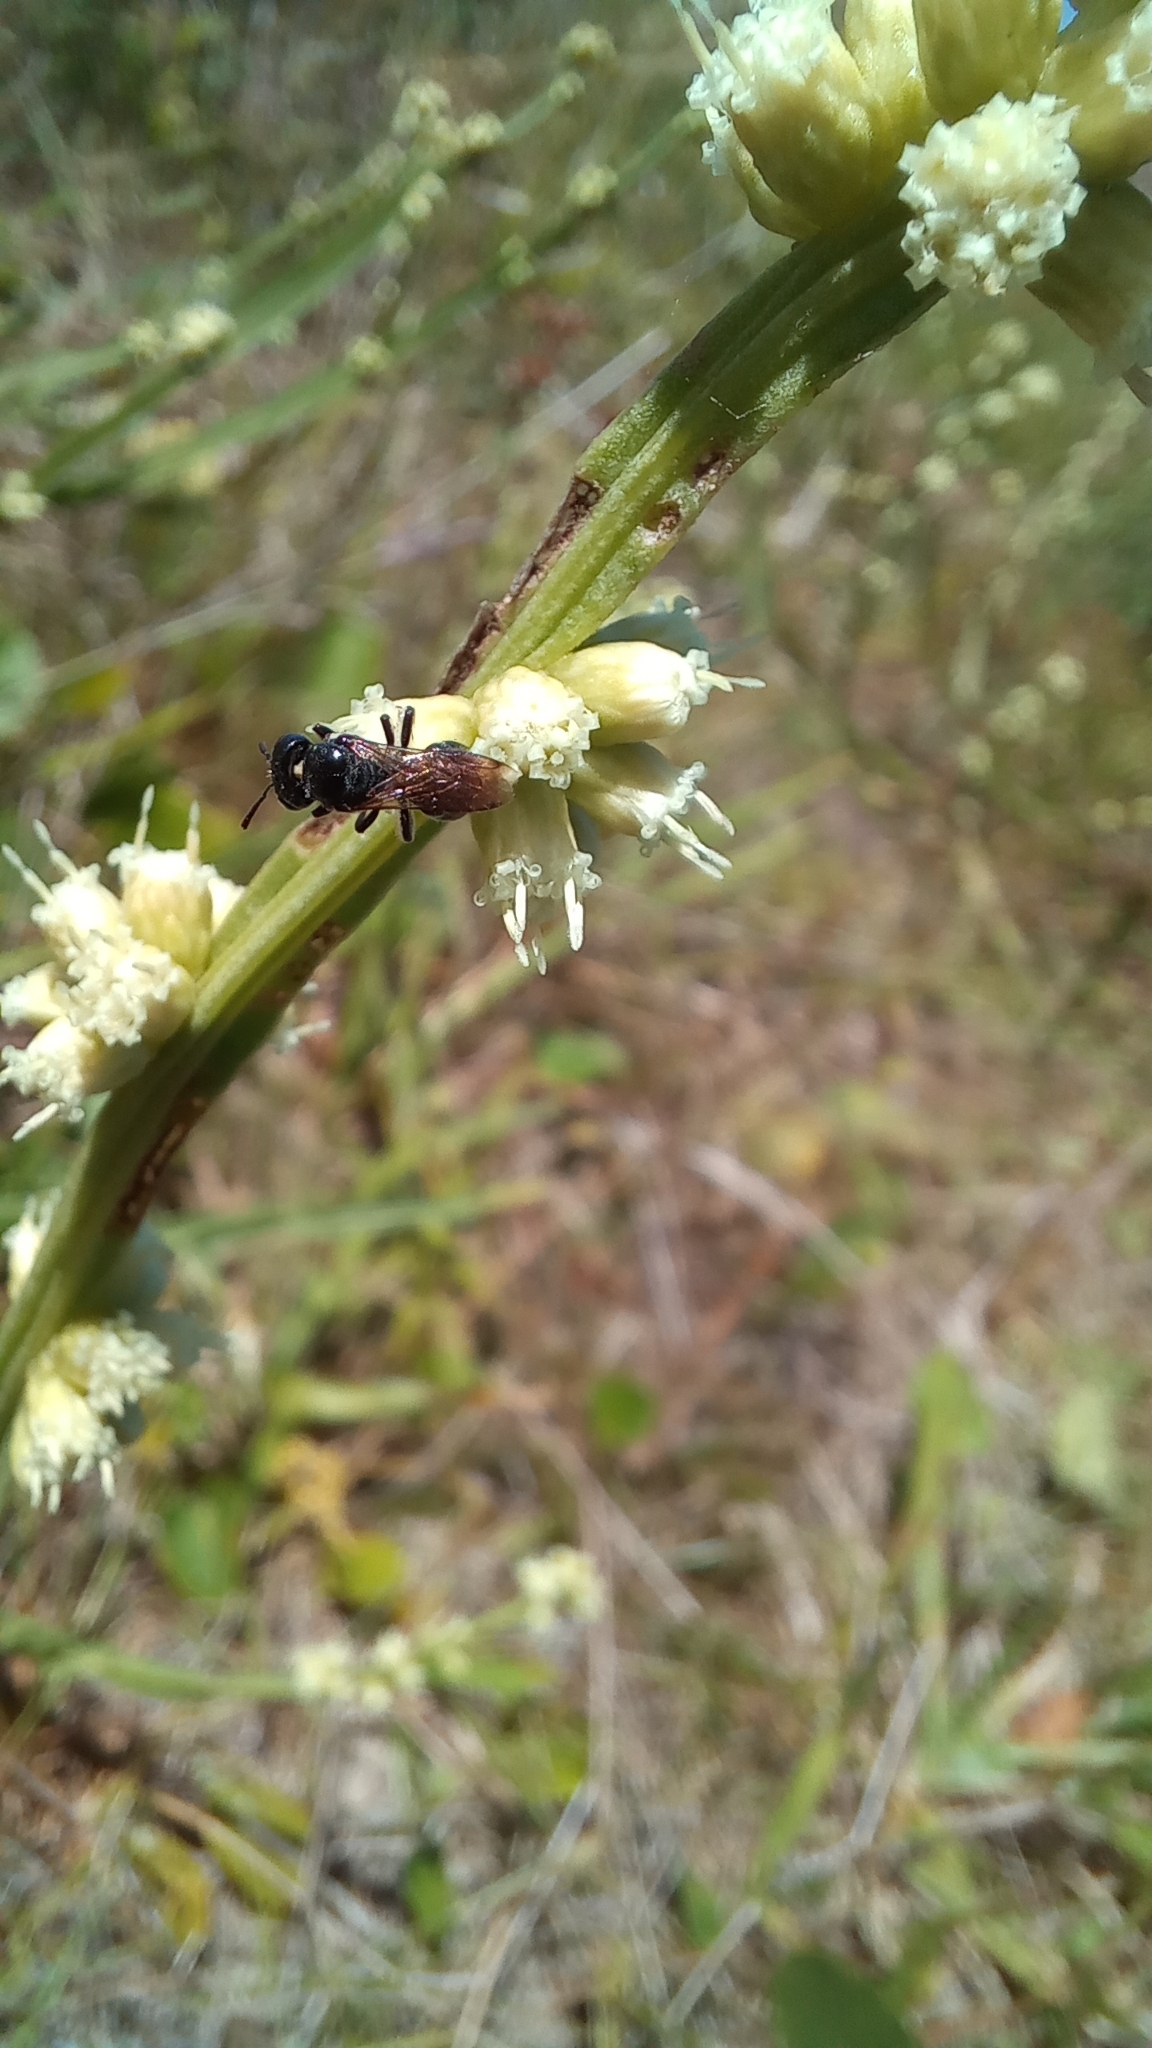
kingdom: Animalia
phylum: Arthropoda
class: Insecta
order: Hymenoptera
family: Apidae
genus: Ceratina
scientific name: Ceratina
